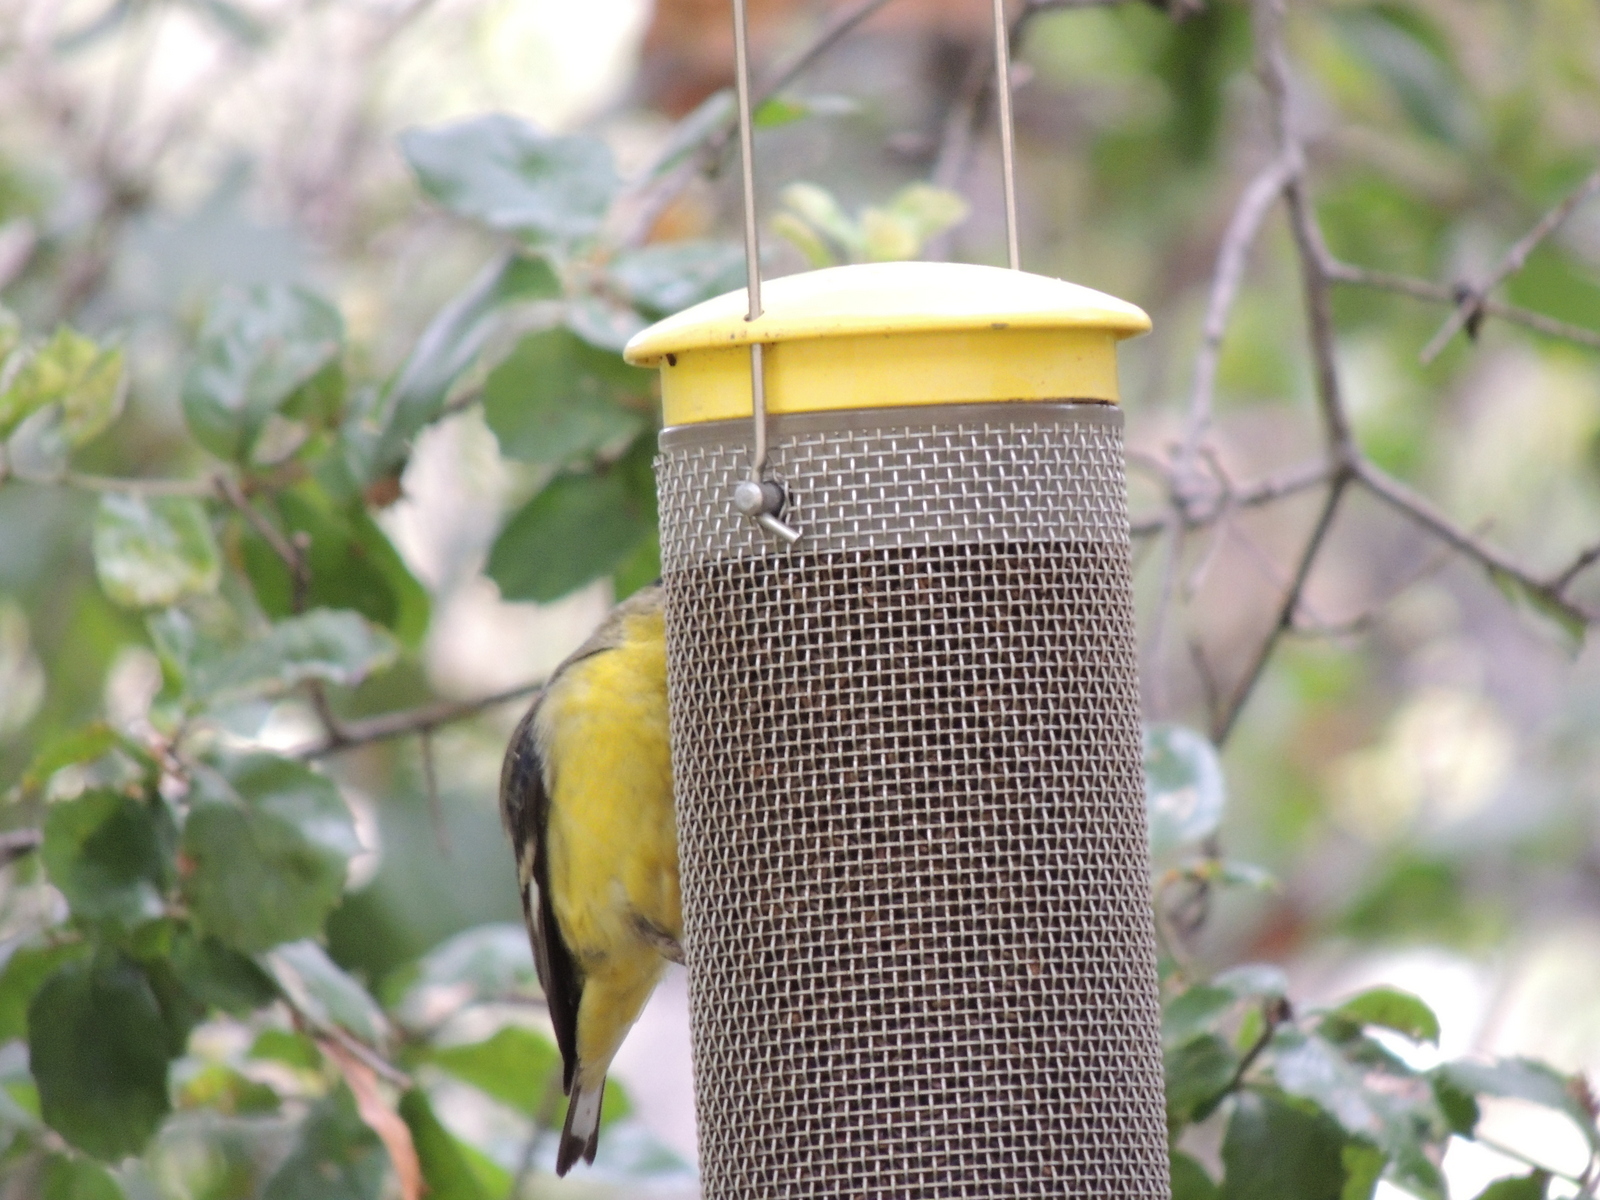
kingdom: Animalia
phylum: Chordata
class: Aves
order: Passeriformes
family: Fringillidae
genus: Spinus
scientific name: Spinus psaltria
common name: Lesser goldfinch
